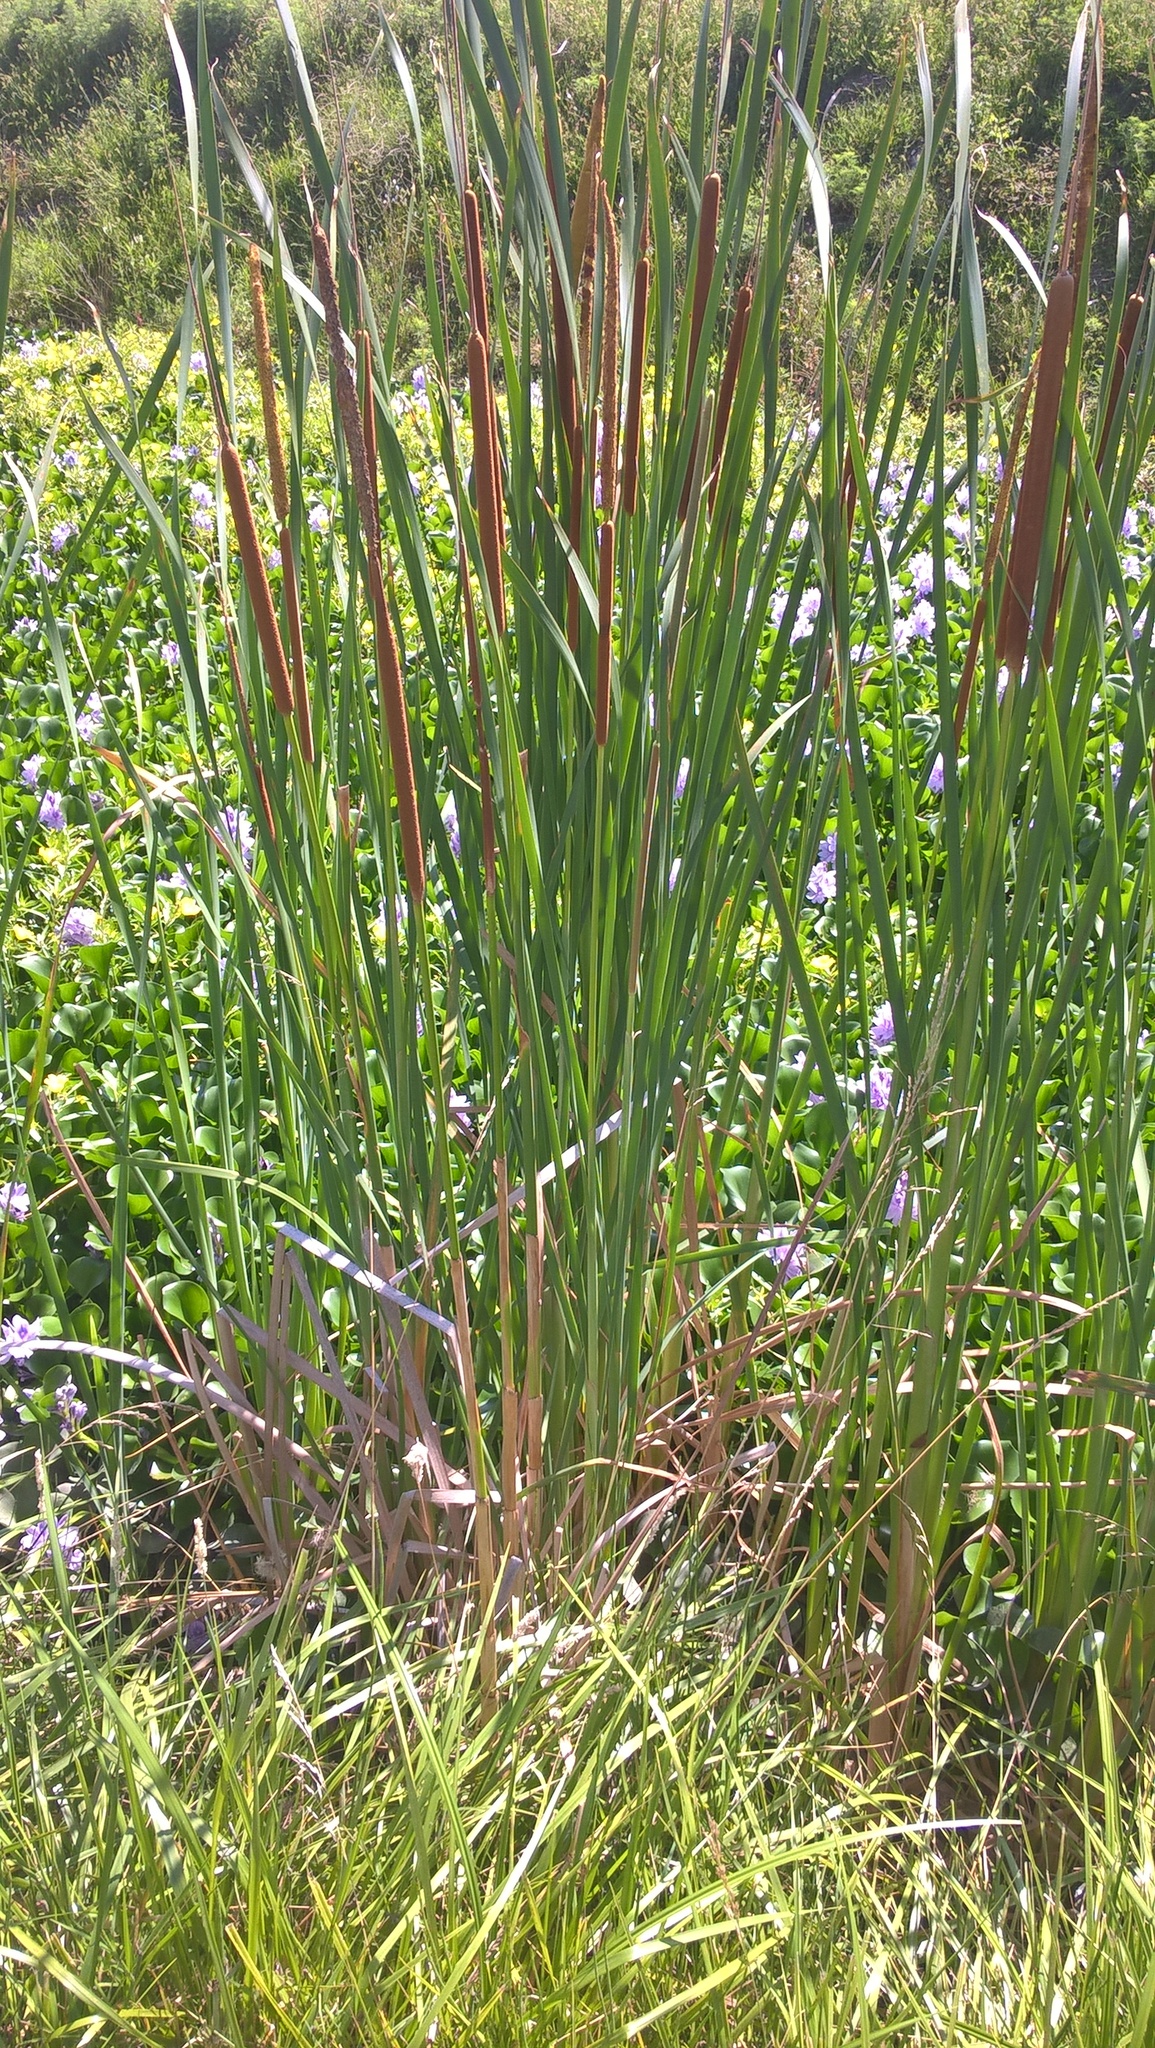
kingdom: Plantae
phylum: Tracheophyta
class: Liliopsida
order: Poales
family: Typhaceae
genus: Typha
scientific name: Typha latifolia
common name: Broadleaf cattail
